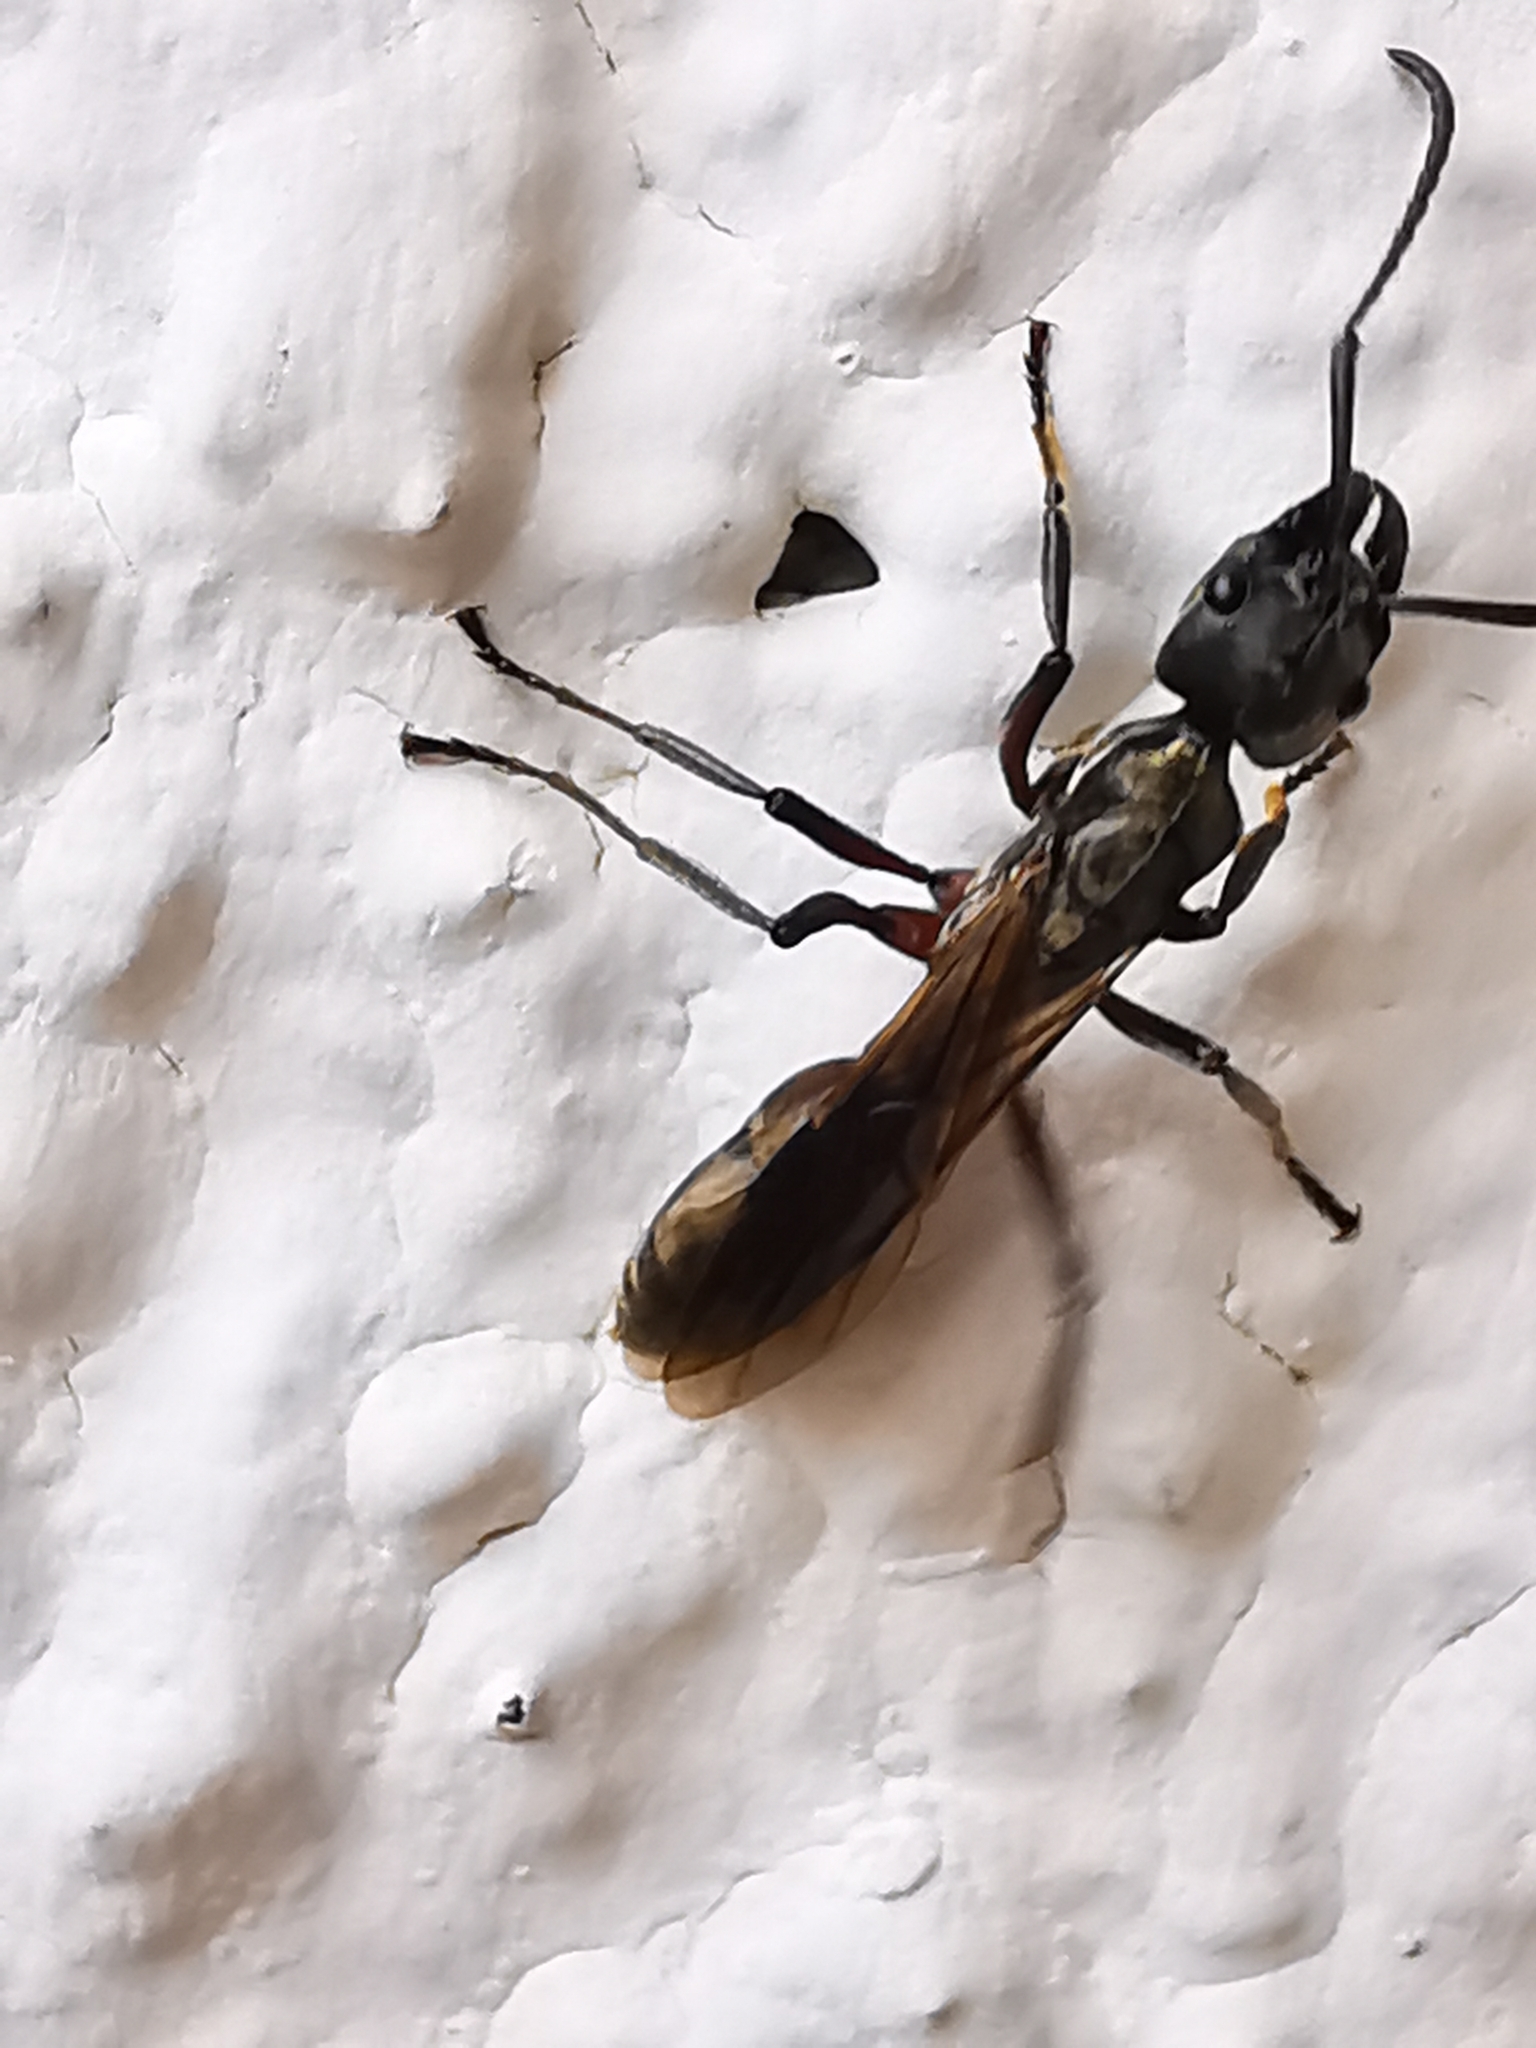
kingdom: Animalia
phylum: Arthropoda
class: Insecta
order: Hymenoptera
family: Formicidae
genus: Pachycondyla
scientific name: Pachycondyla villosa
